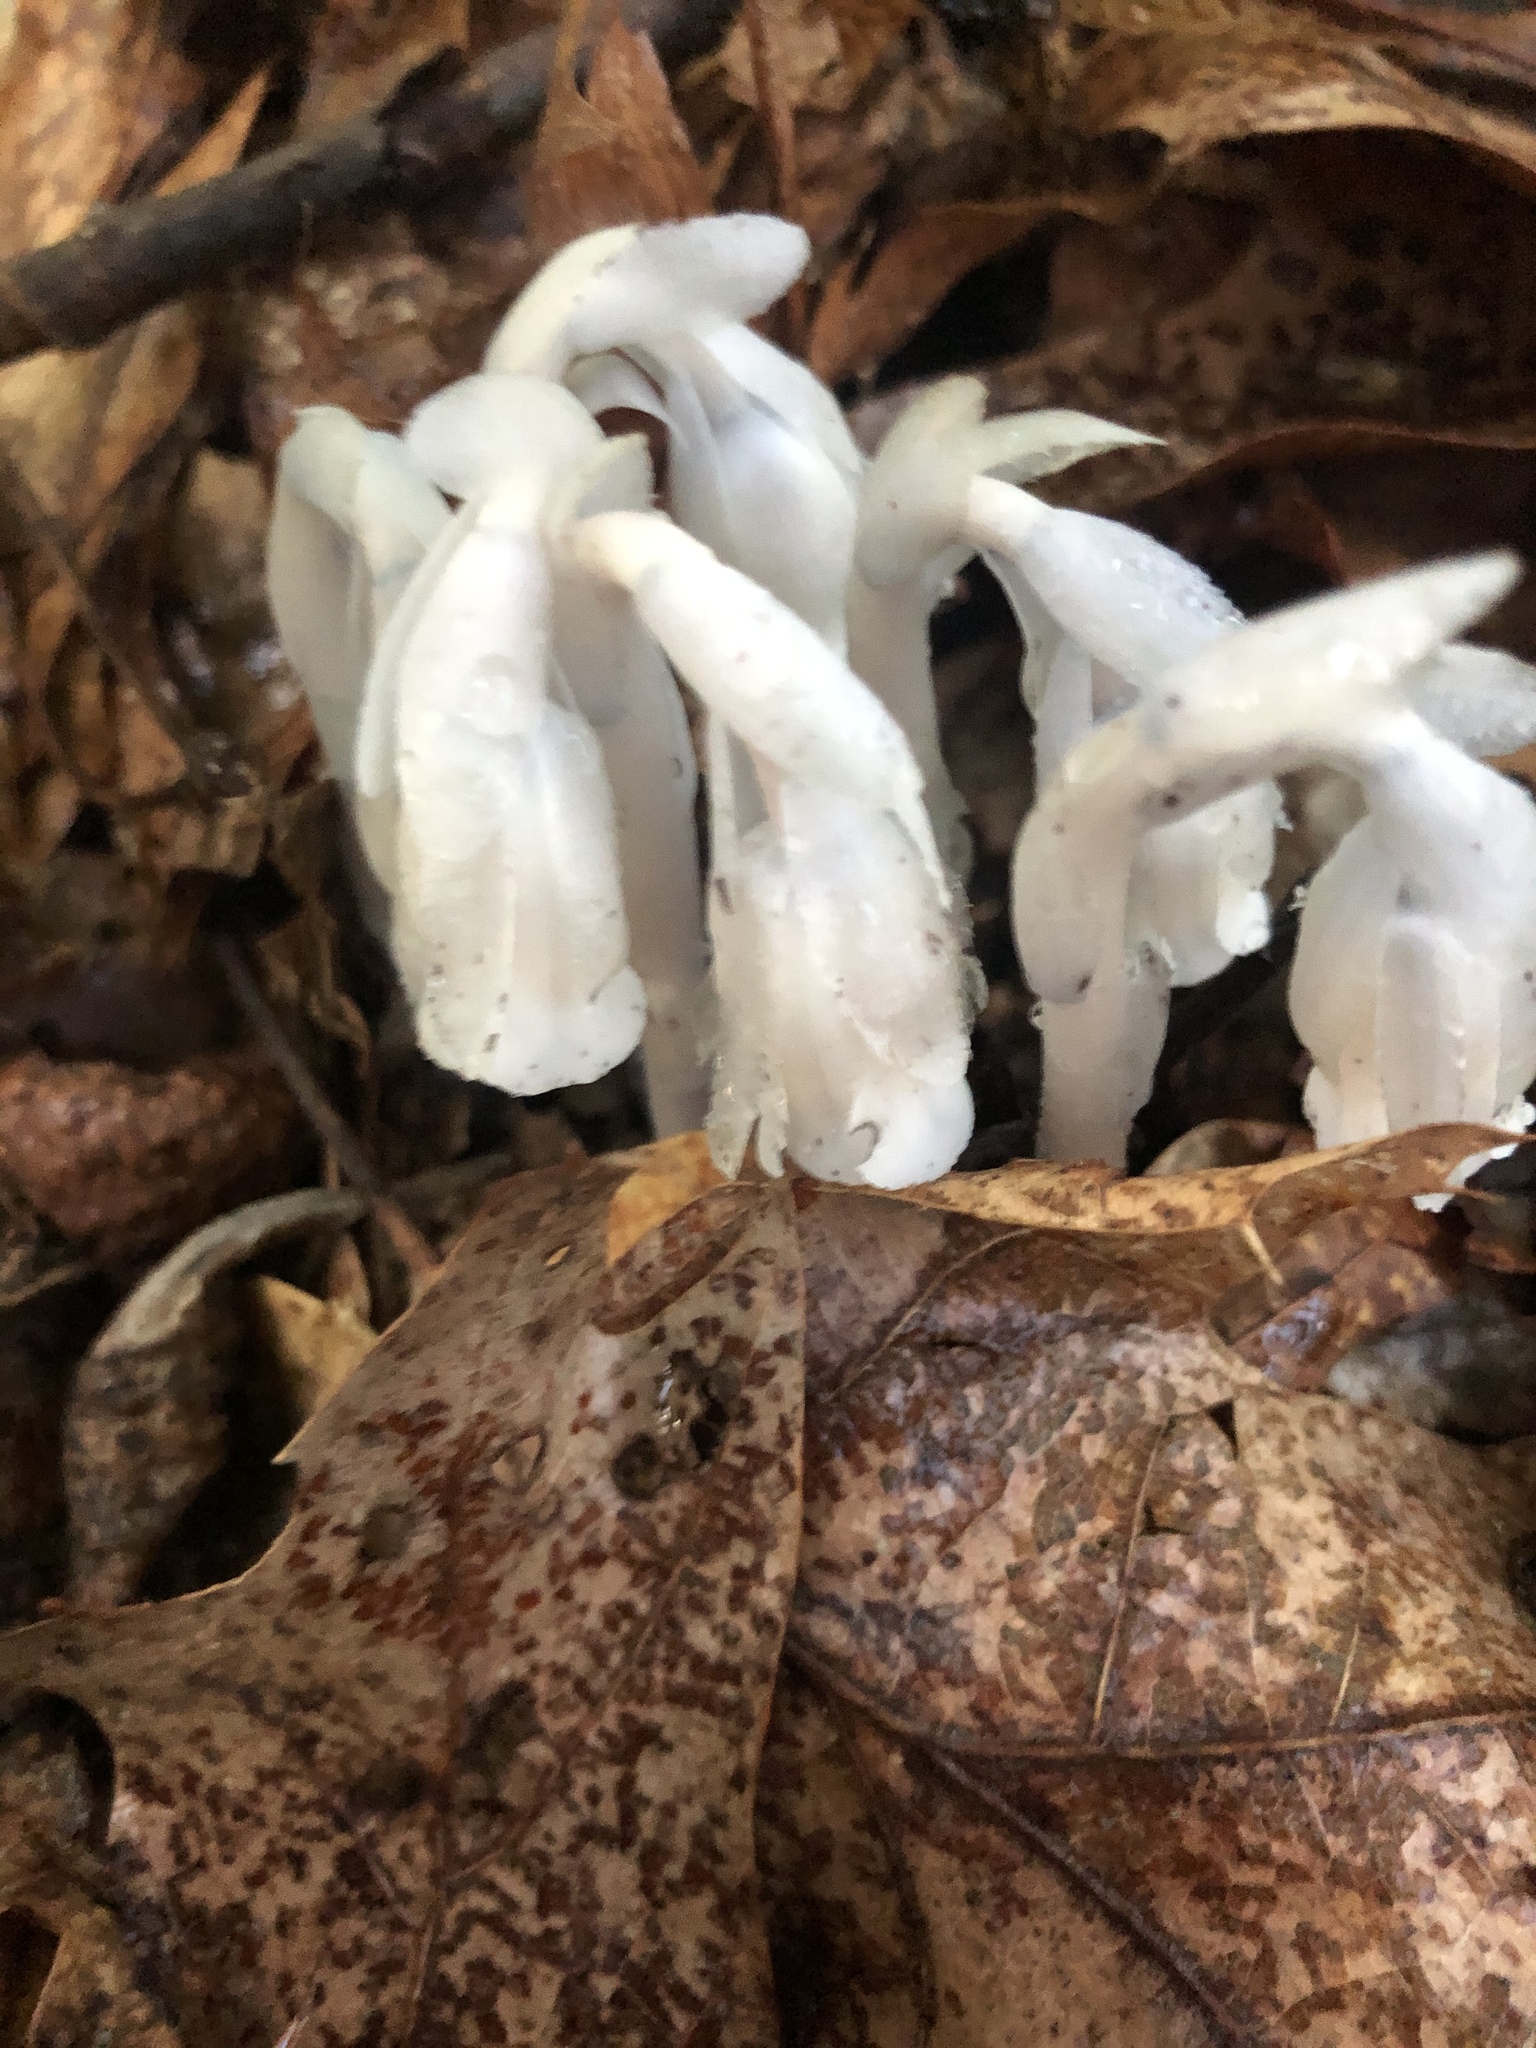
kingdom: Plantae
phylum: Tracheophyta
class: Magnoliopsida
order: Ericales
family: Ericaceae
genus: Monotropa
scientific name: Monotropa uniflora
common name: Convulsion root
